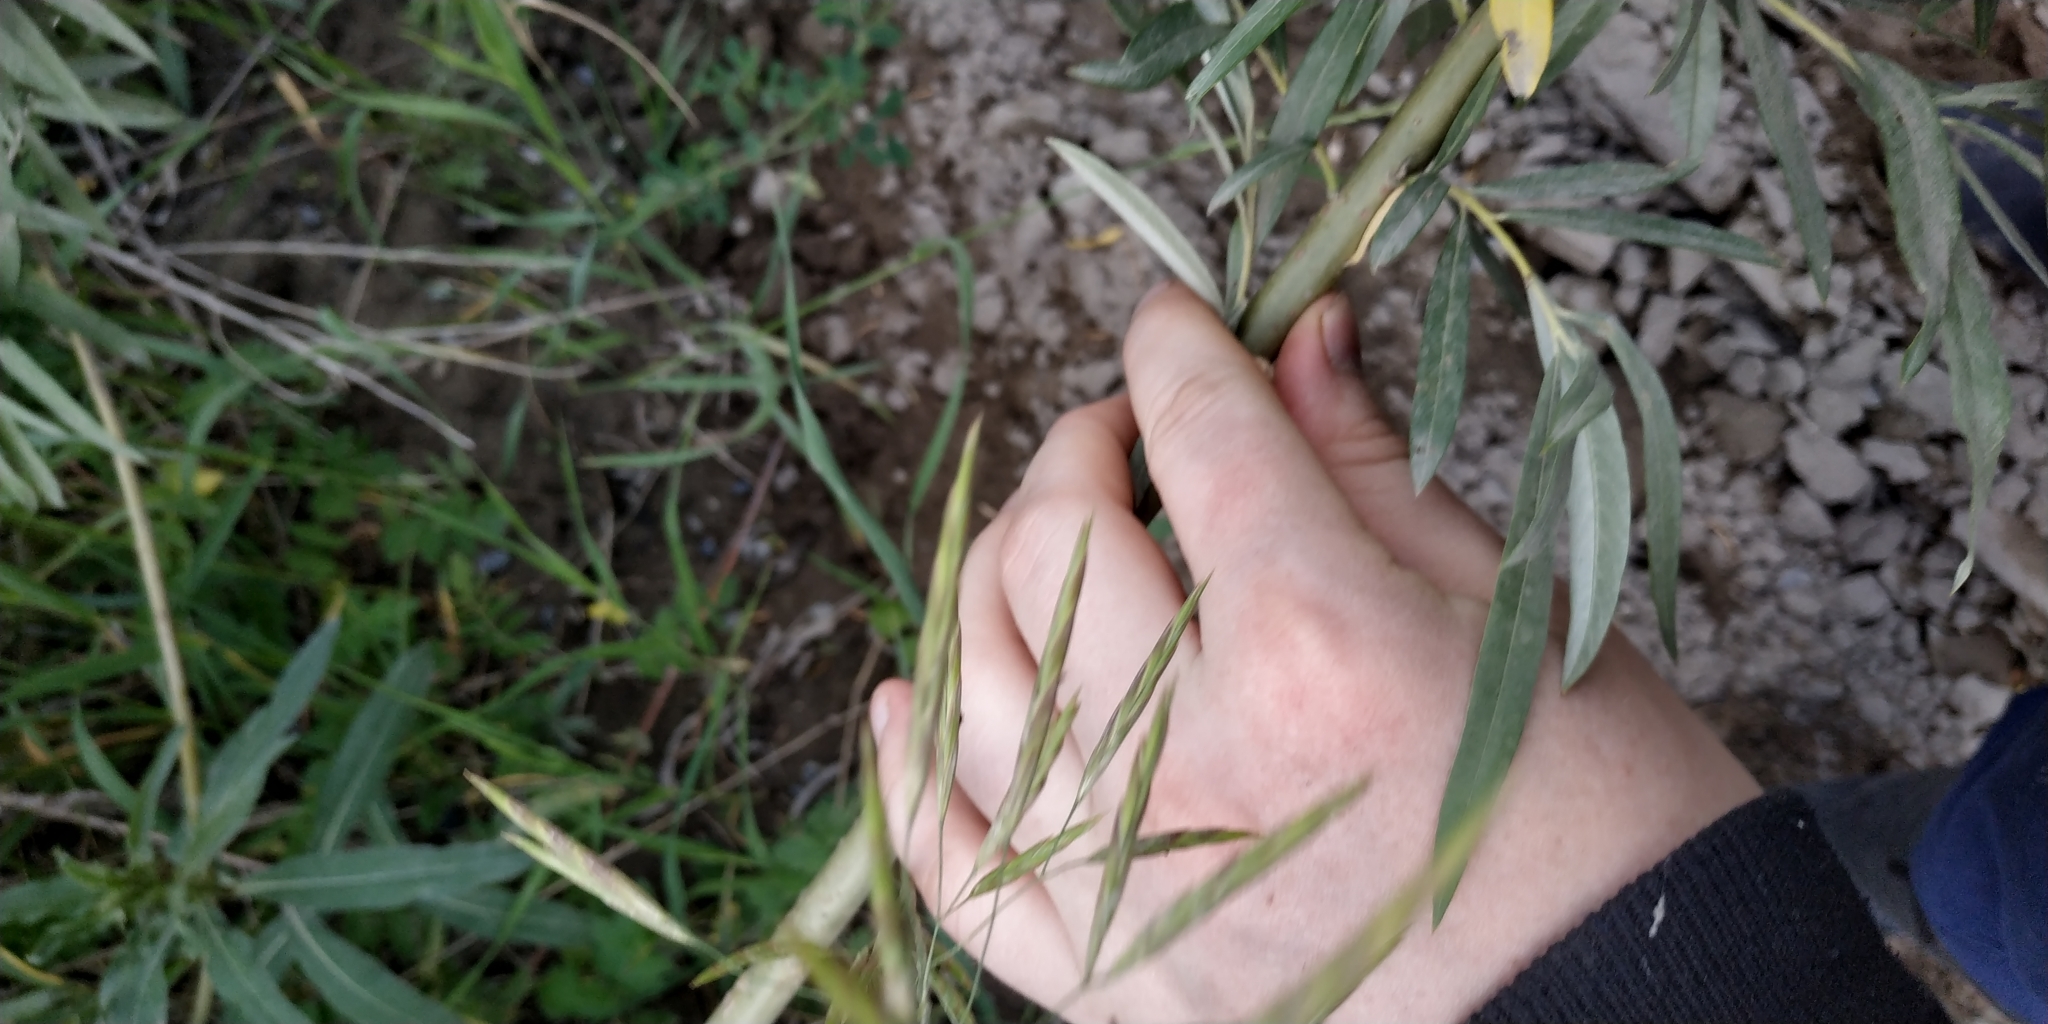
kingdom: Plantae
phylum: Tracheophyta
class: Magnoliopsida
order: Malpighiales
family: Salicaceae
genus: Salix
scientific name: Salix viminalis
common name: Osier
